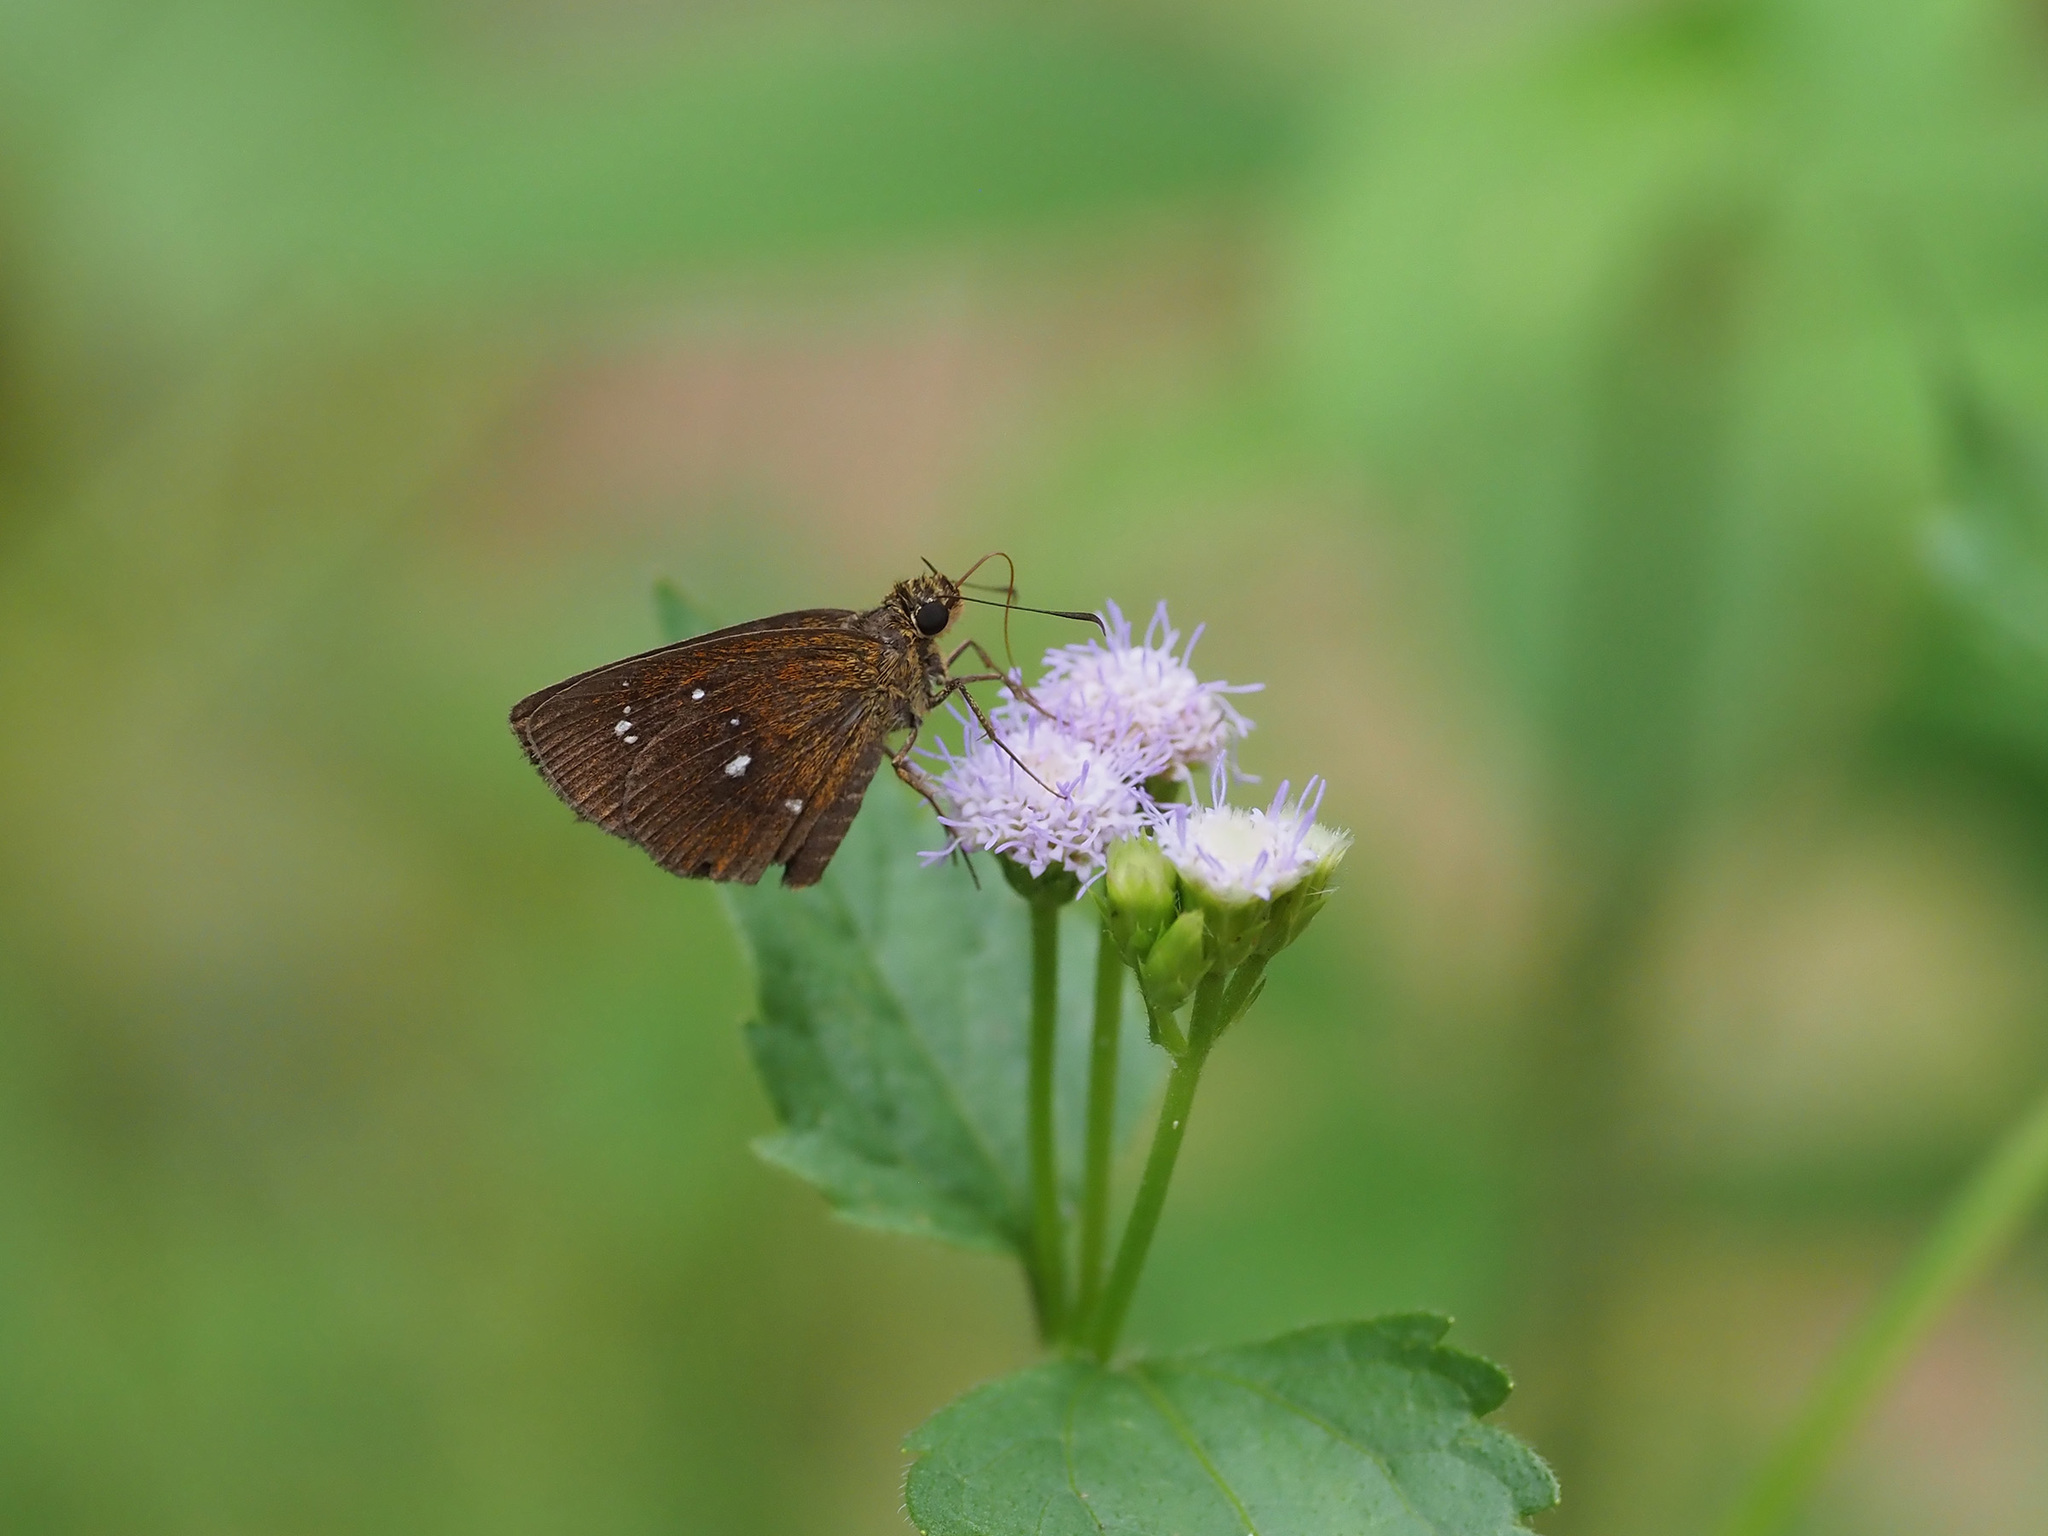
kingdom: Animalia
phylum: Arthropoda
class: Insecta
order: Lepidoptera
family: Hesperiidae
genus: Iambrix
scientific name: Iambrix salsala
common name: Chestnut bob
